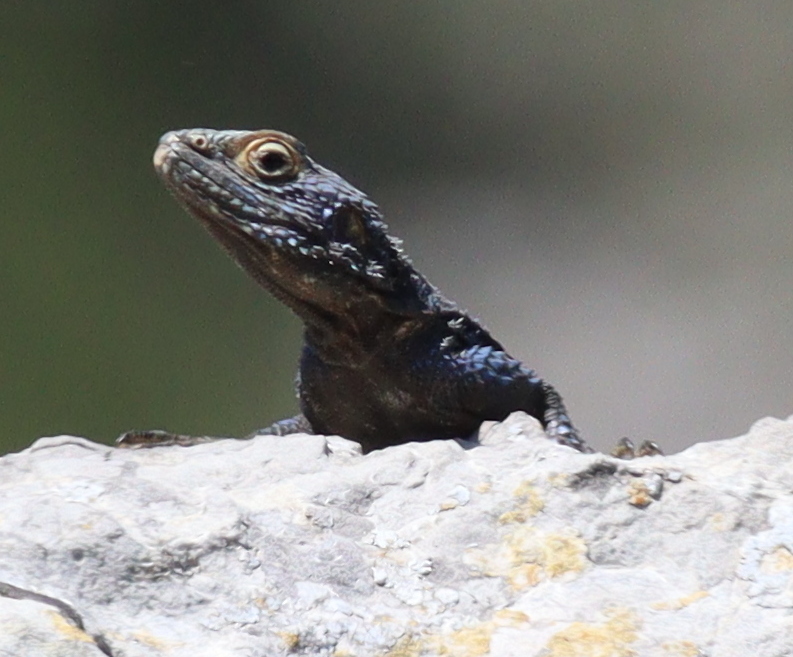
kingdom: Animalia
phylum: Chordata
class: Squamata
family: Agamidae
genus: Stellagama
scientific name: Stellagama stellio
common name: Starred agama
